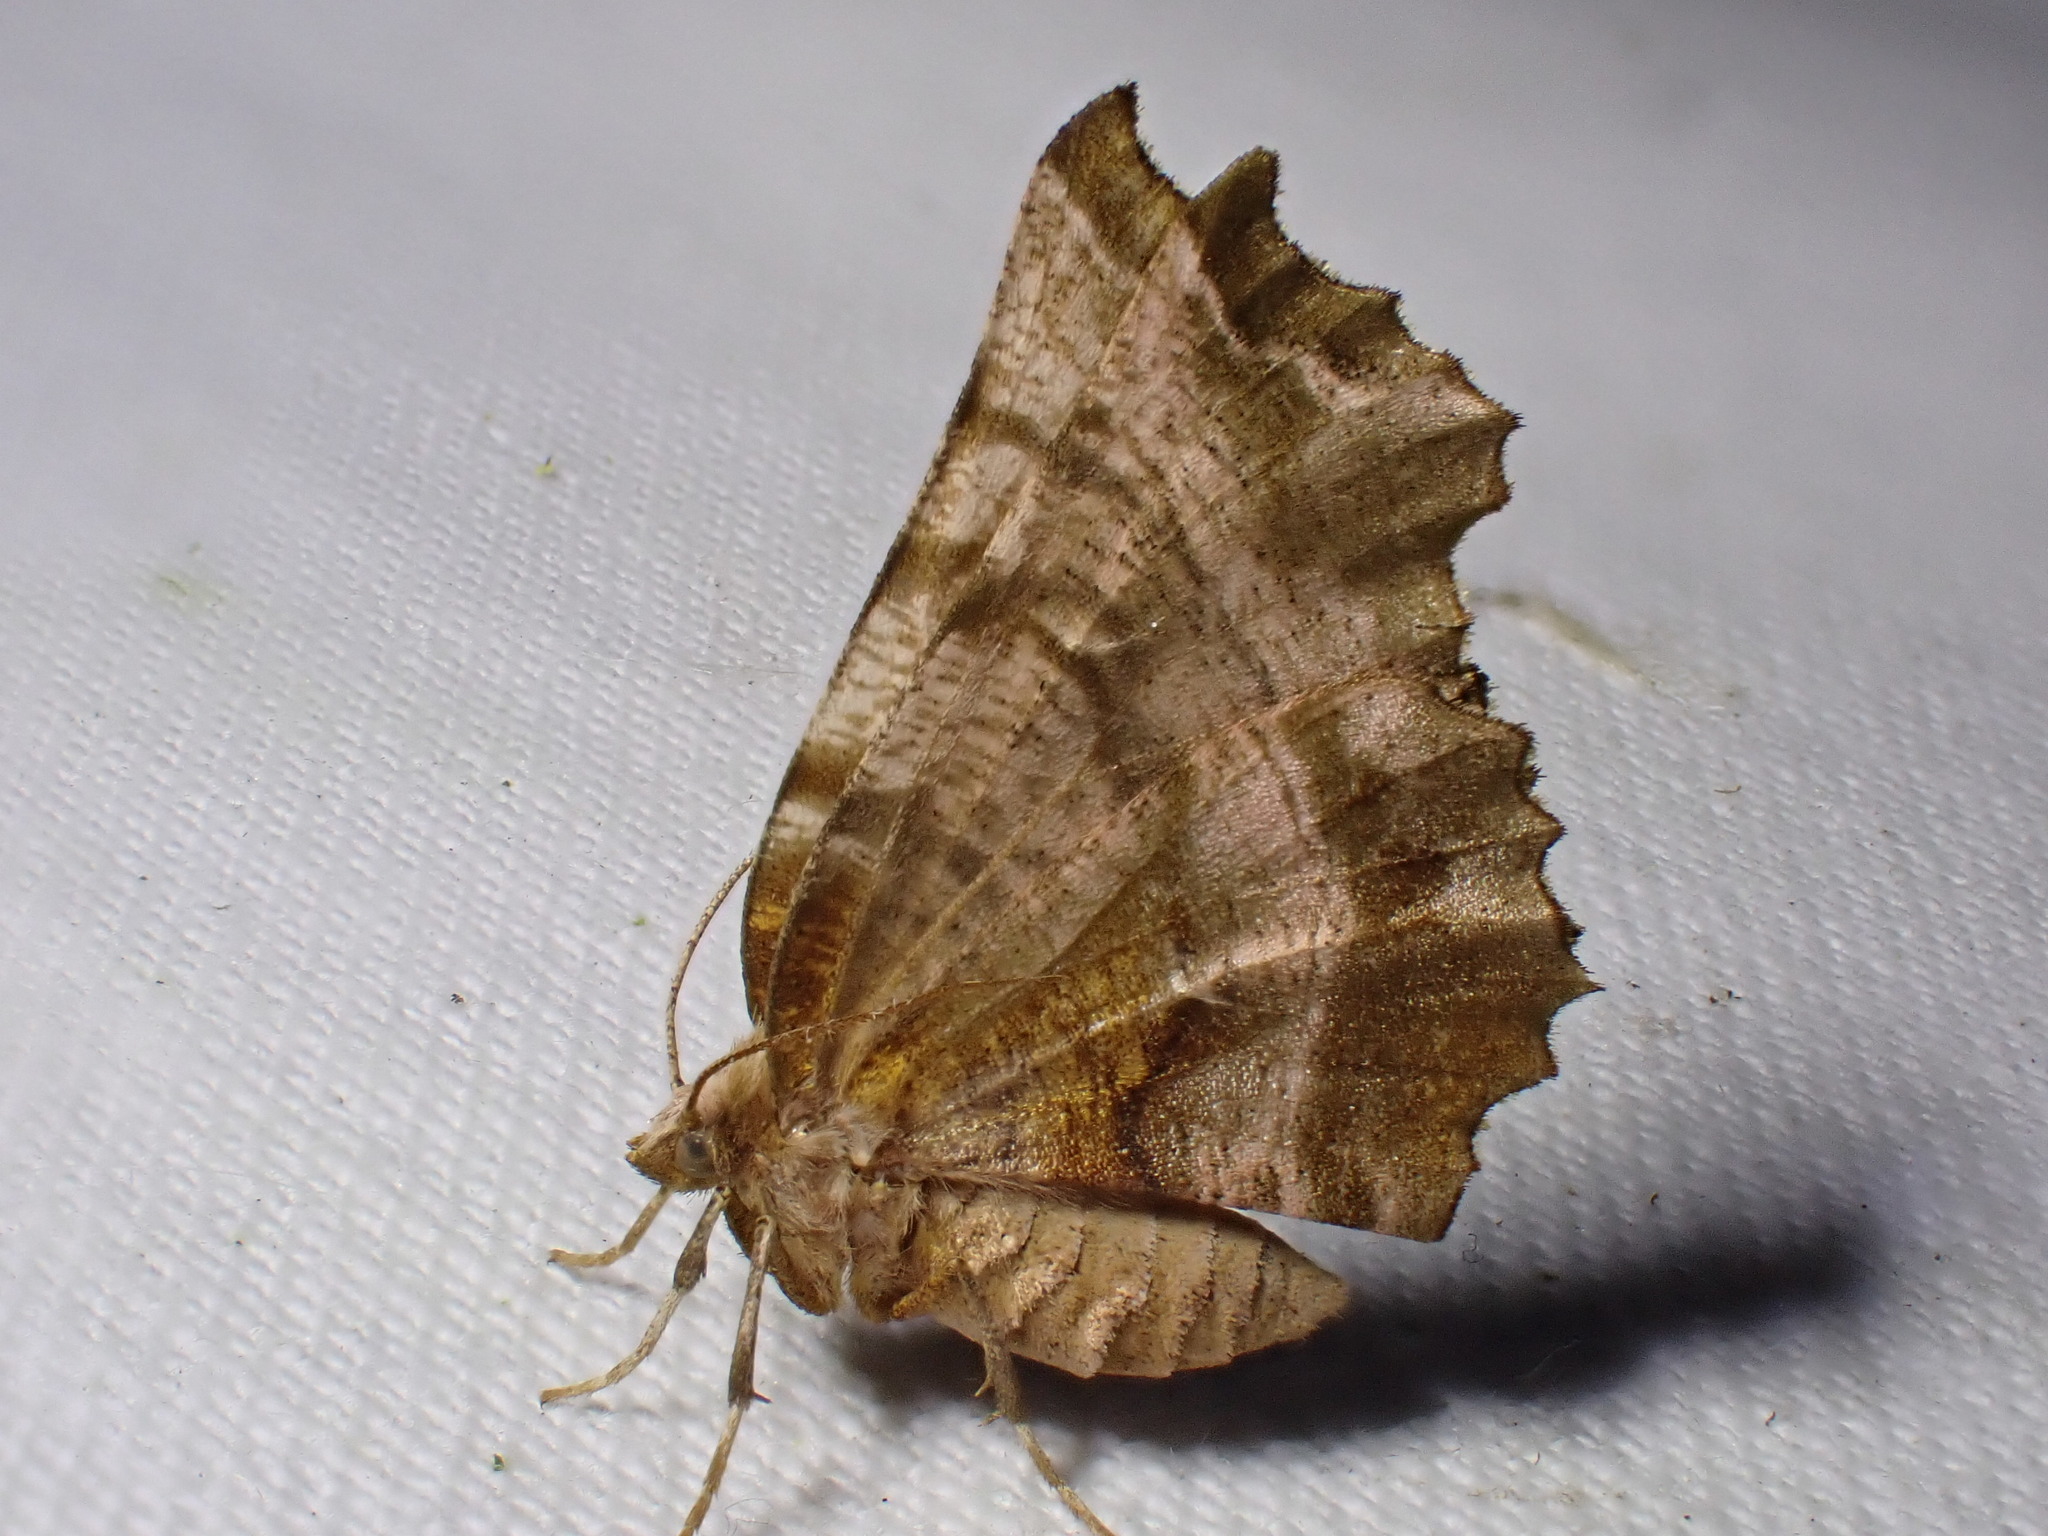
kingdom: Animalia
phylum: Arthropoda
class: Insecta
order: Lepidoptera
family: Geometridae
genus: Selenia
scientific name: Selenia dentaria
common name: Early thorn
